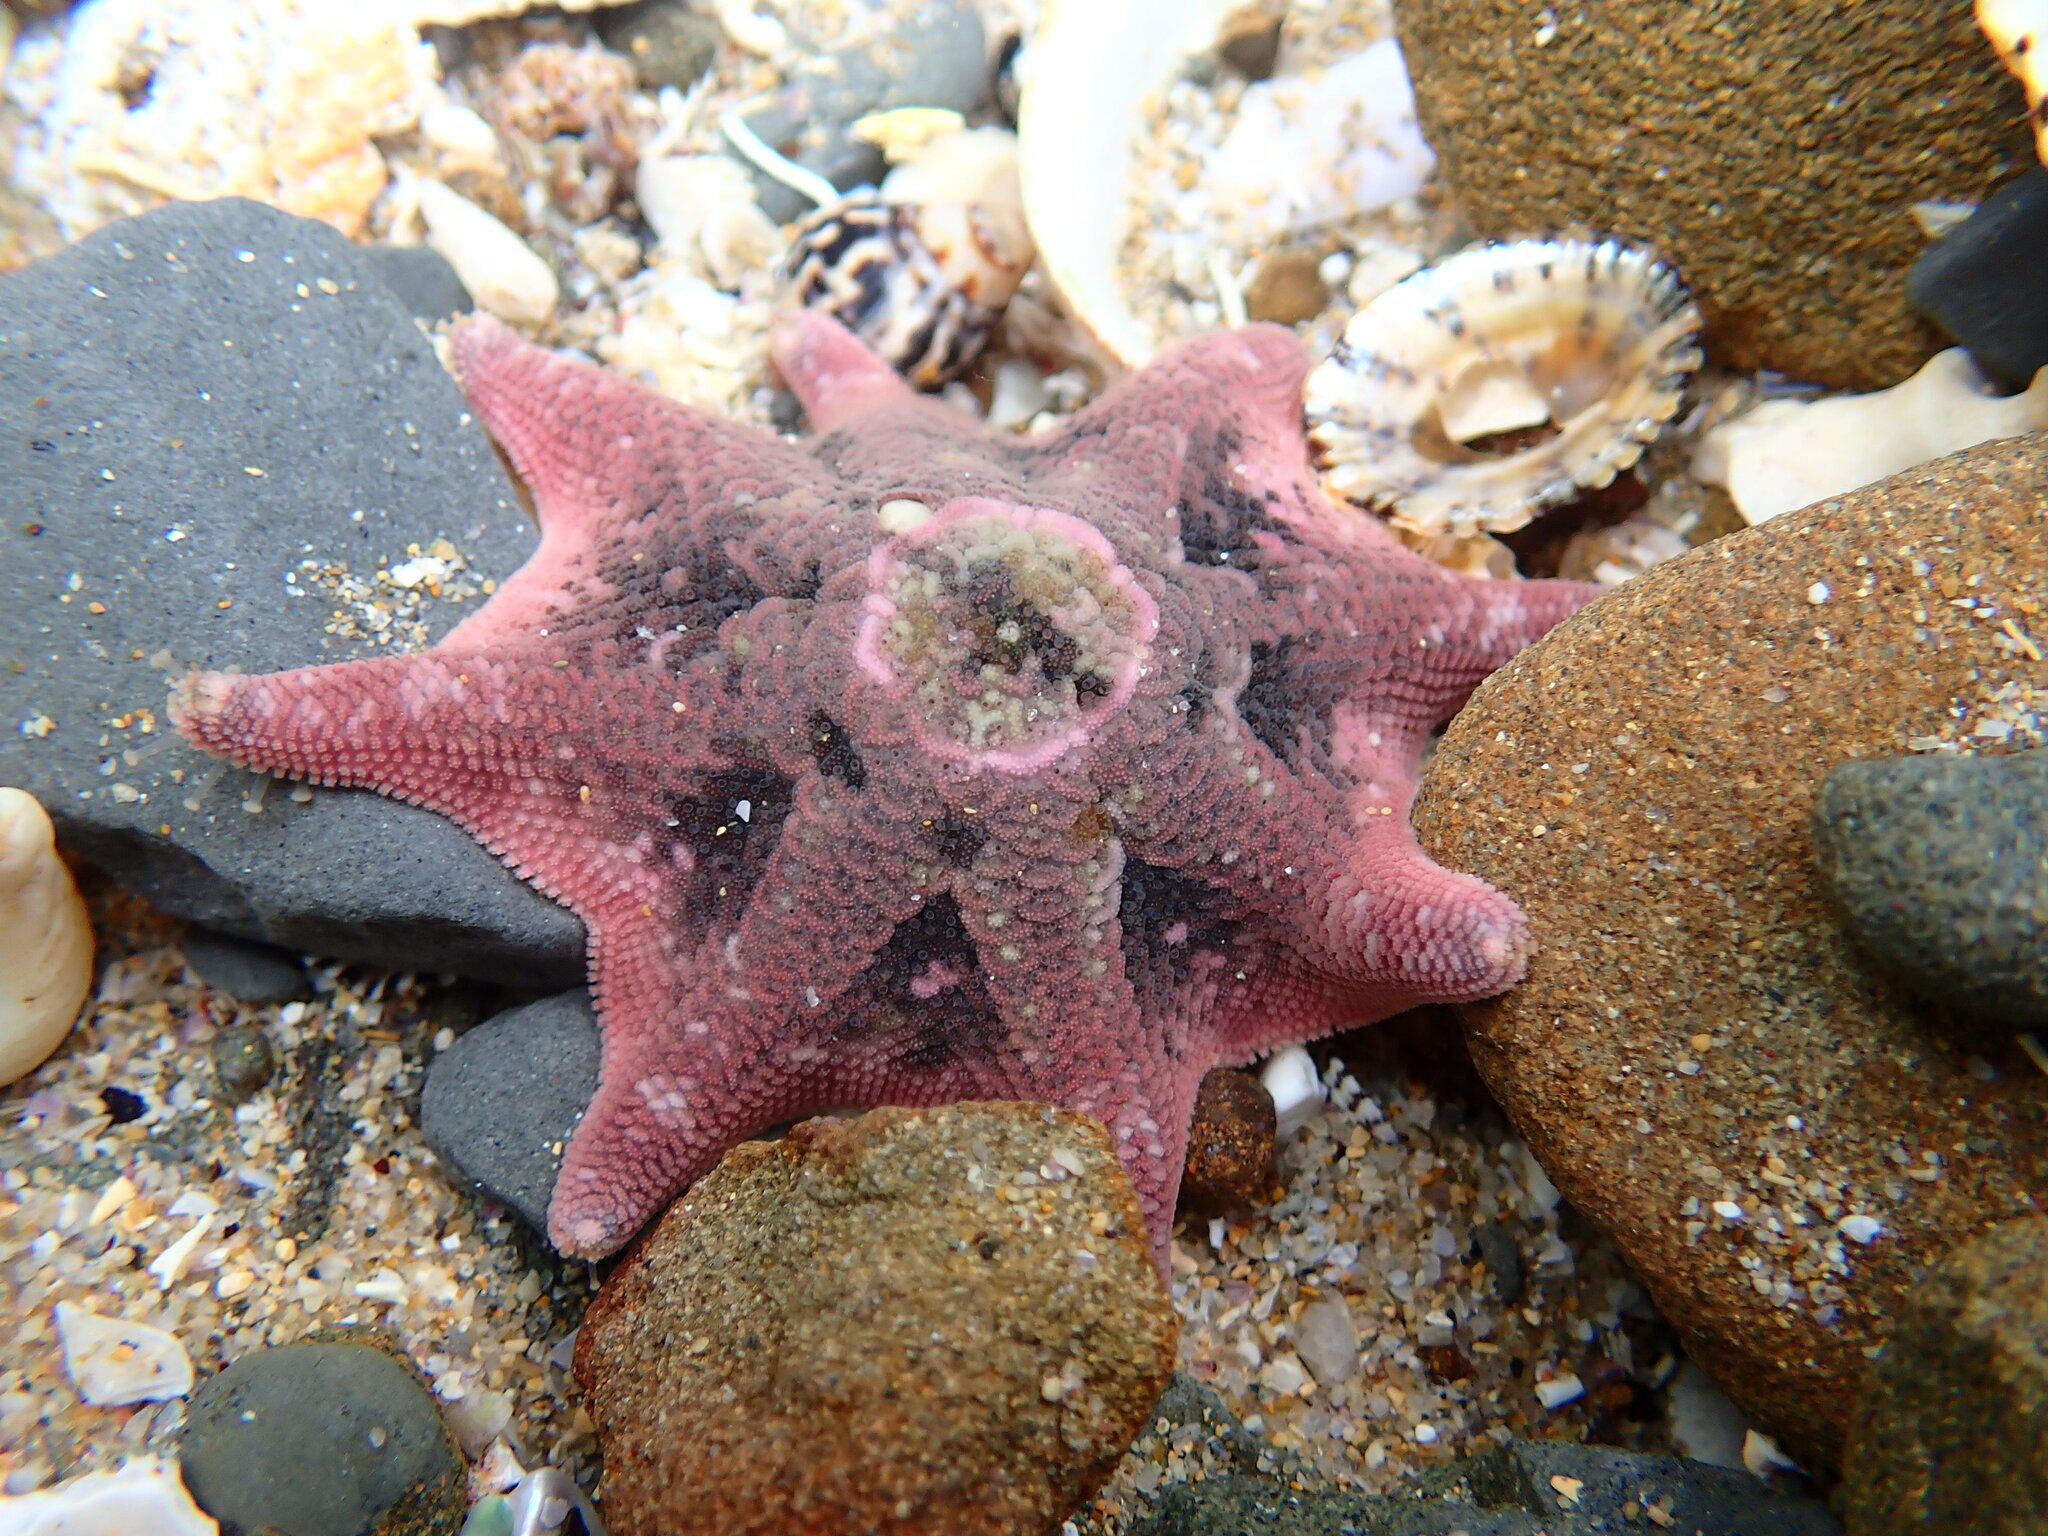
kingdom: Animalia
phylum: Echinodermata
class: Asteroidea
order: Valvatida
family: Asterinidae
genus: Meridiastra
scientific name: Meridiastra calcar
